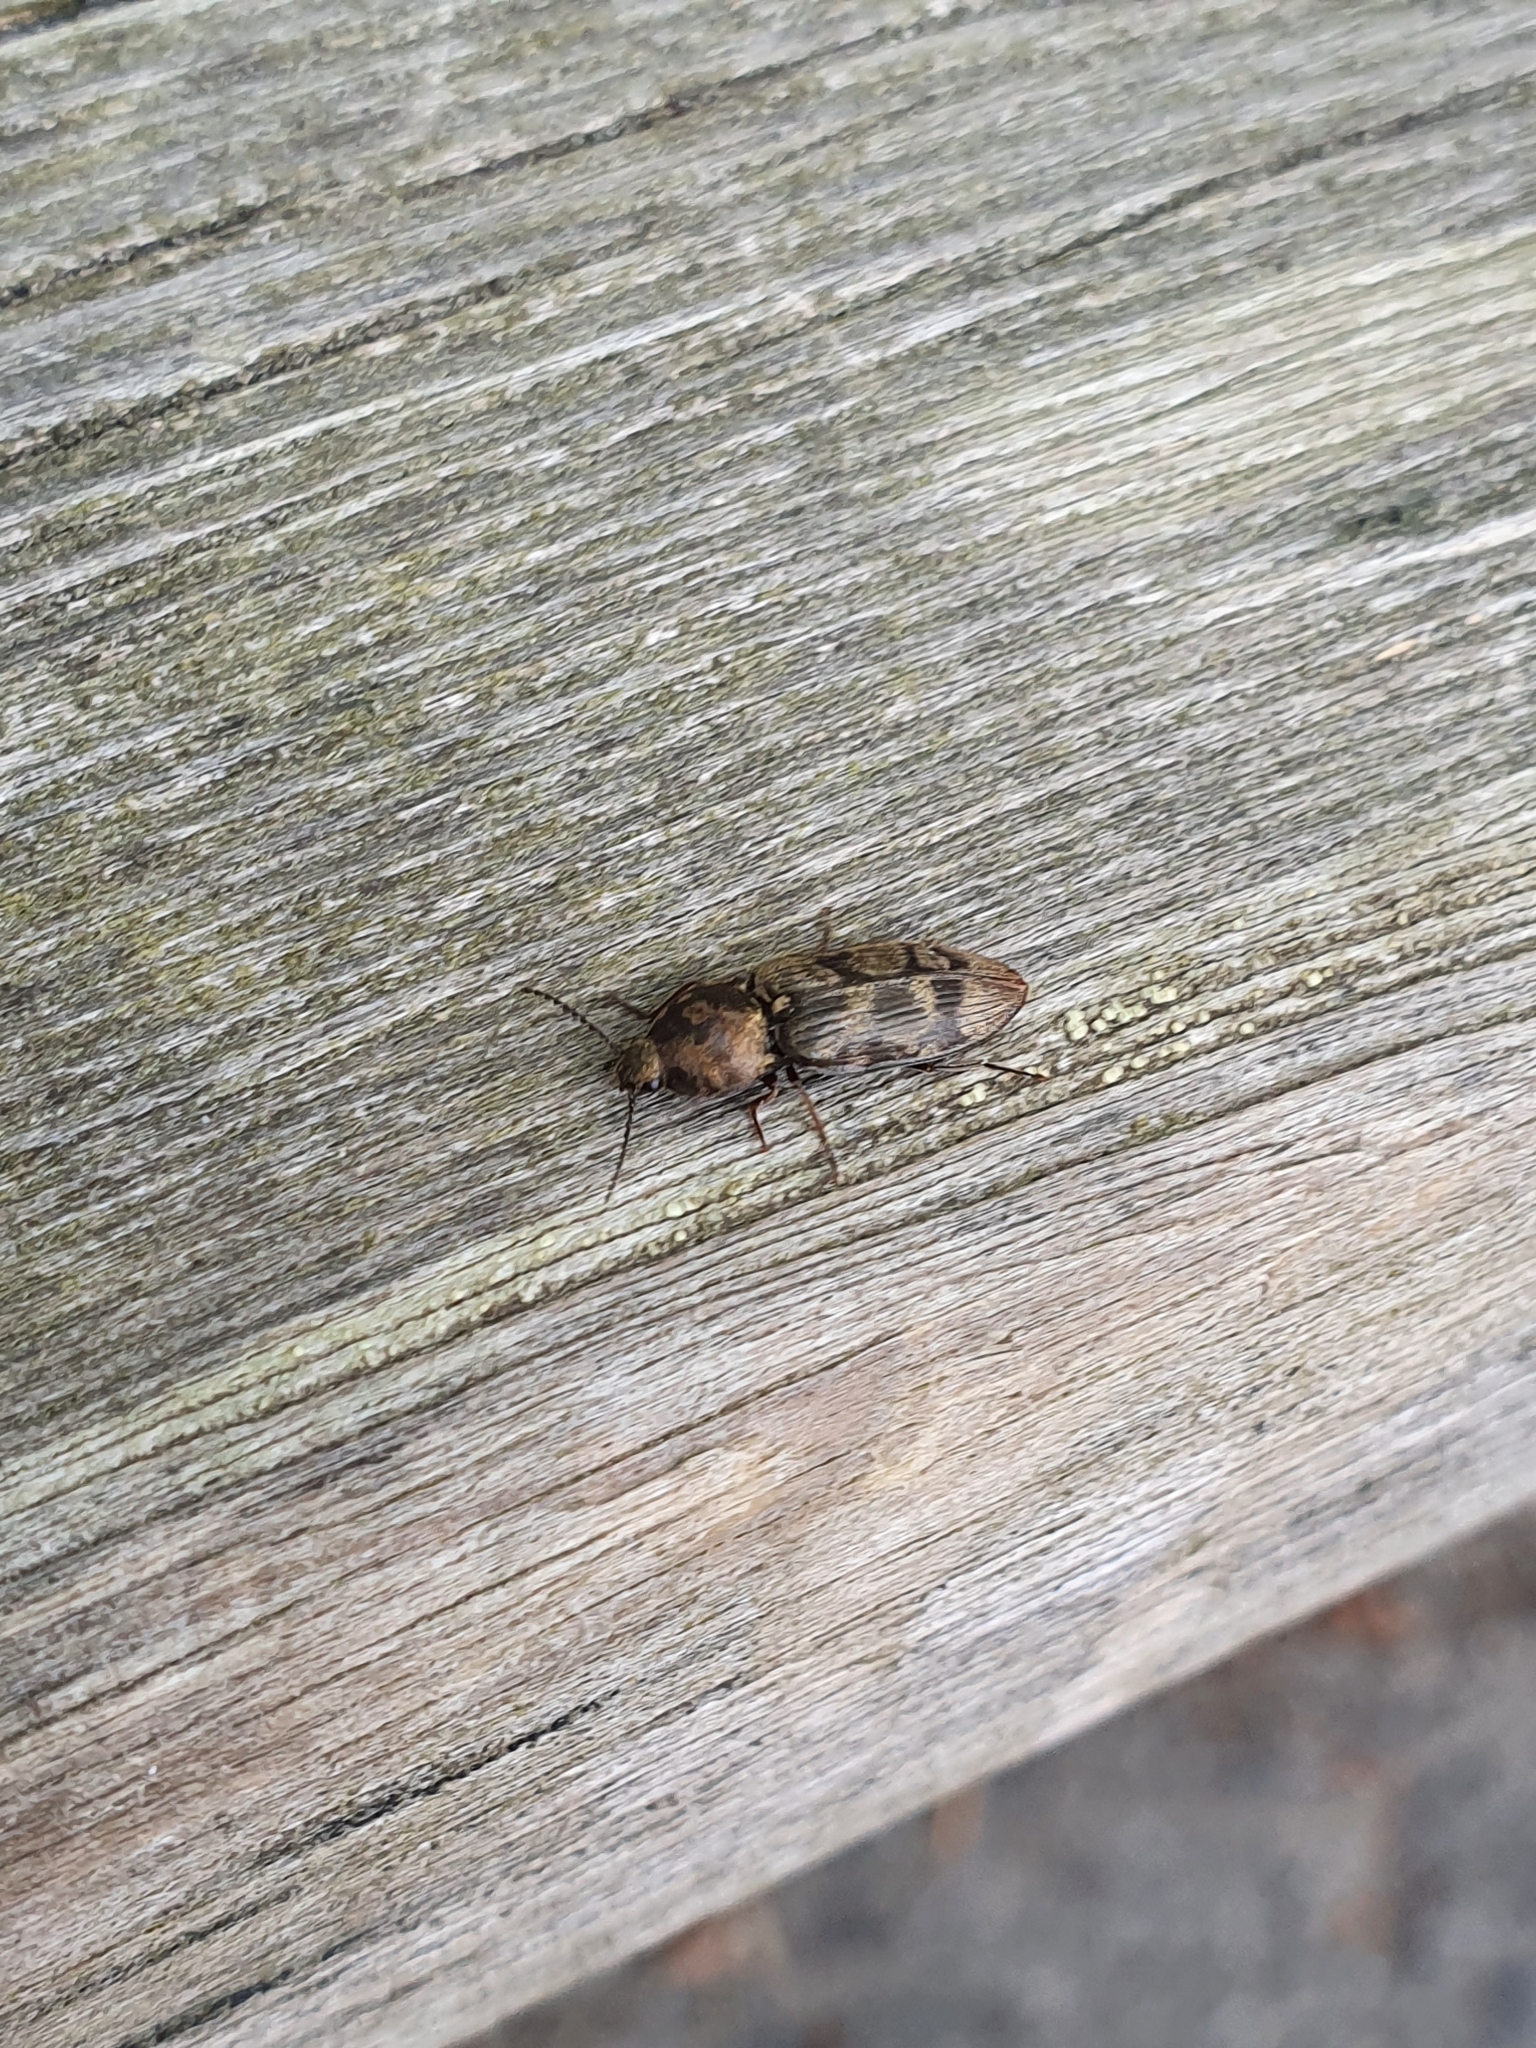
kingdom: Animalia
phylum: Arthropoda
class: Insecta
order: Coleoptera
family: Elateridae
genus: Prosternon
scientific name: Prosternon tessellatum
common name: Chequered click beetle
